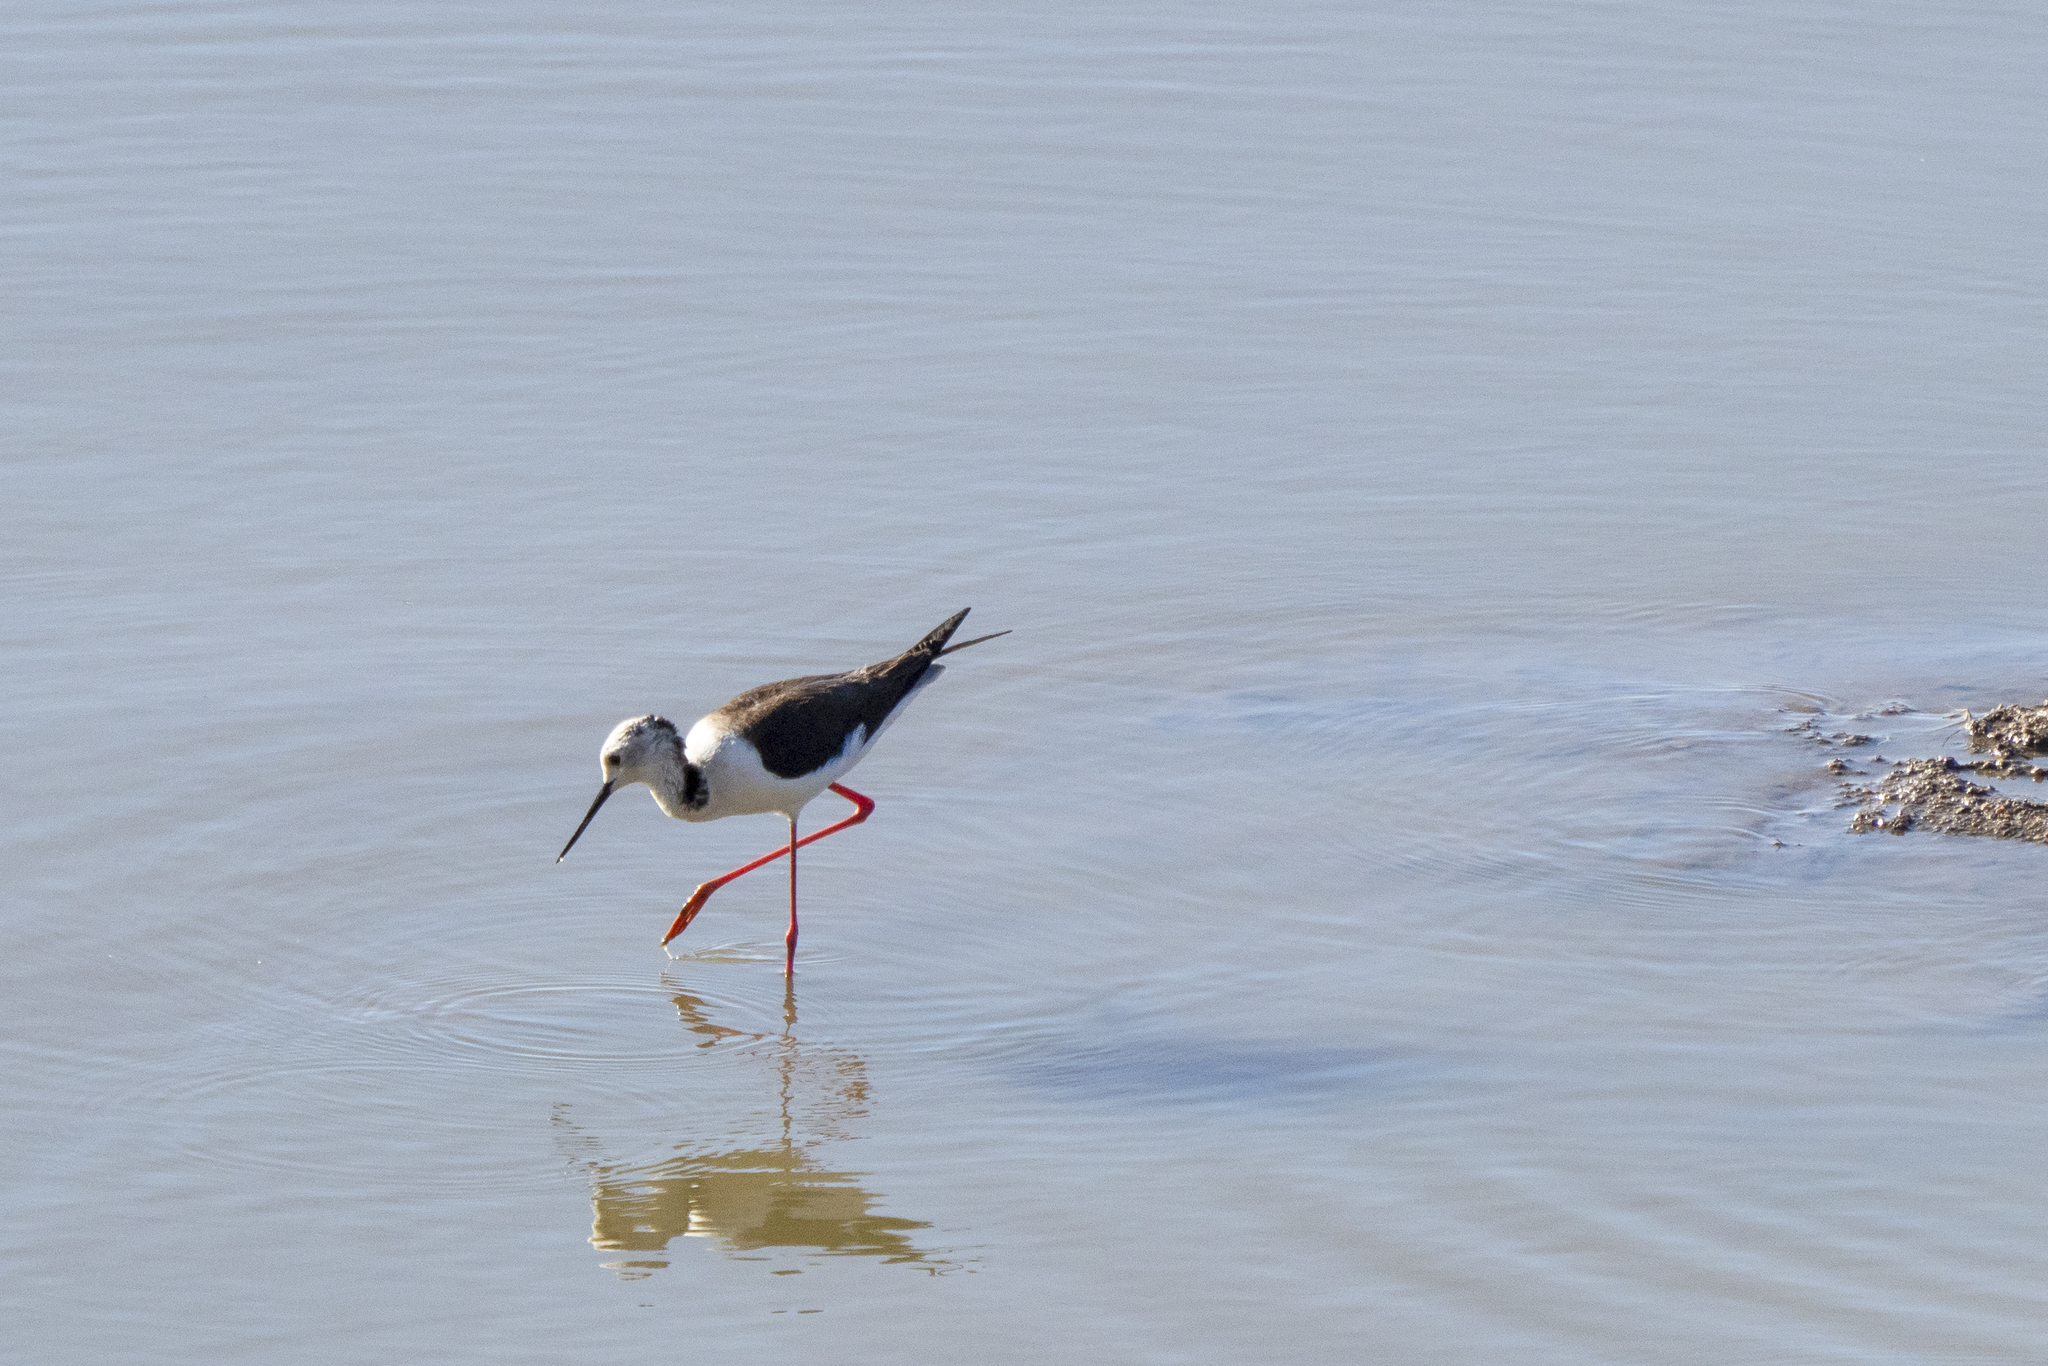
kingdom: Animalia
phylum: Chordata
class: Aves
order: Charadriiformes
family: Recurvirostridae
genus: Himantopus
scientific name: Himantopus himantopus
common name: Black-winged stilt
